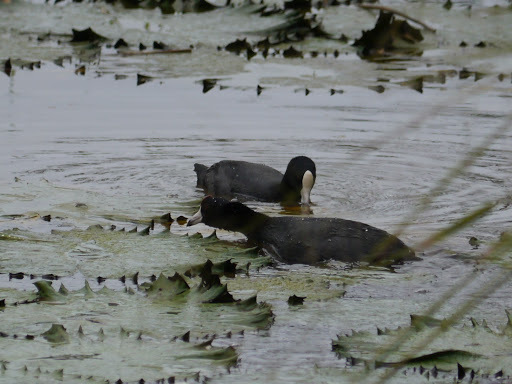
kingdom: Animalia
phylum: Chordata
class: Aves
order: Gruiformes
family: Rallidae
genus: Fulica
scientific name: Fulica alai
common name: Hawaiian coot
